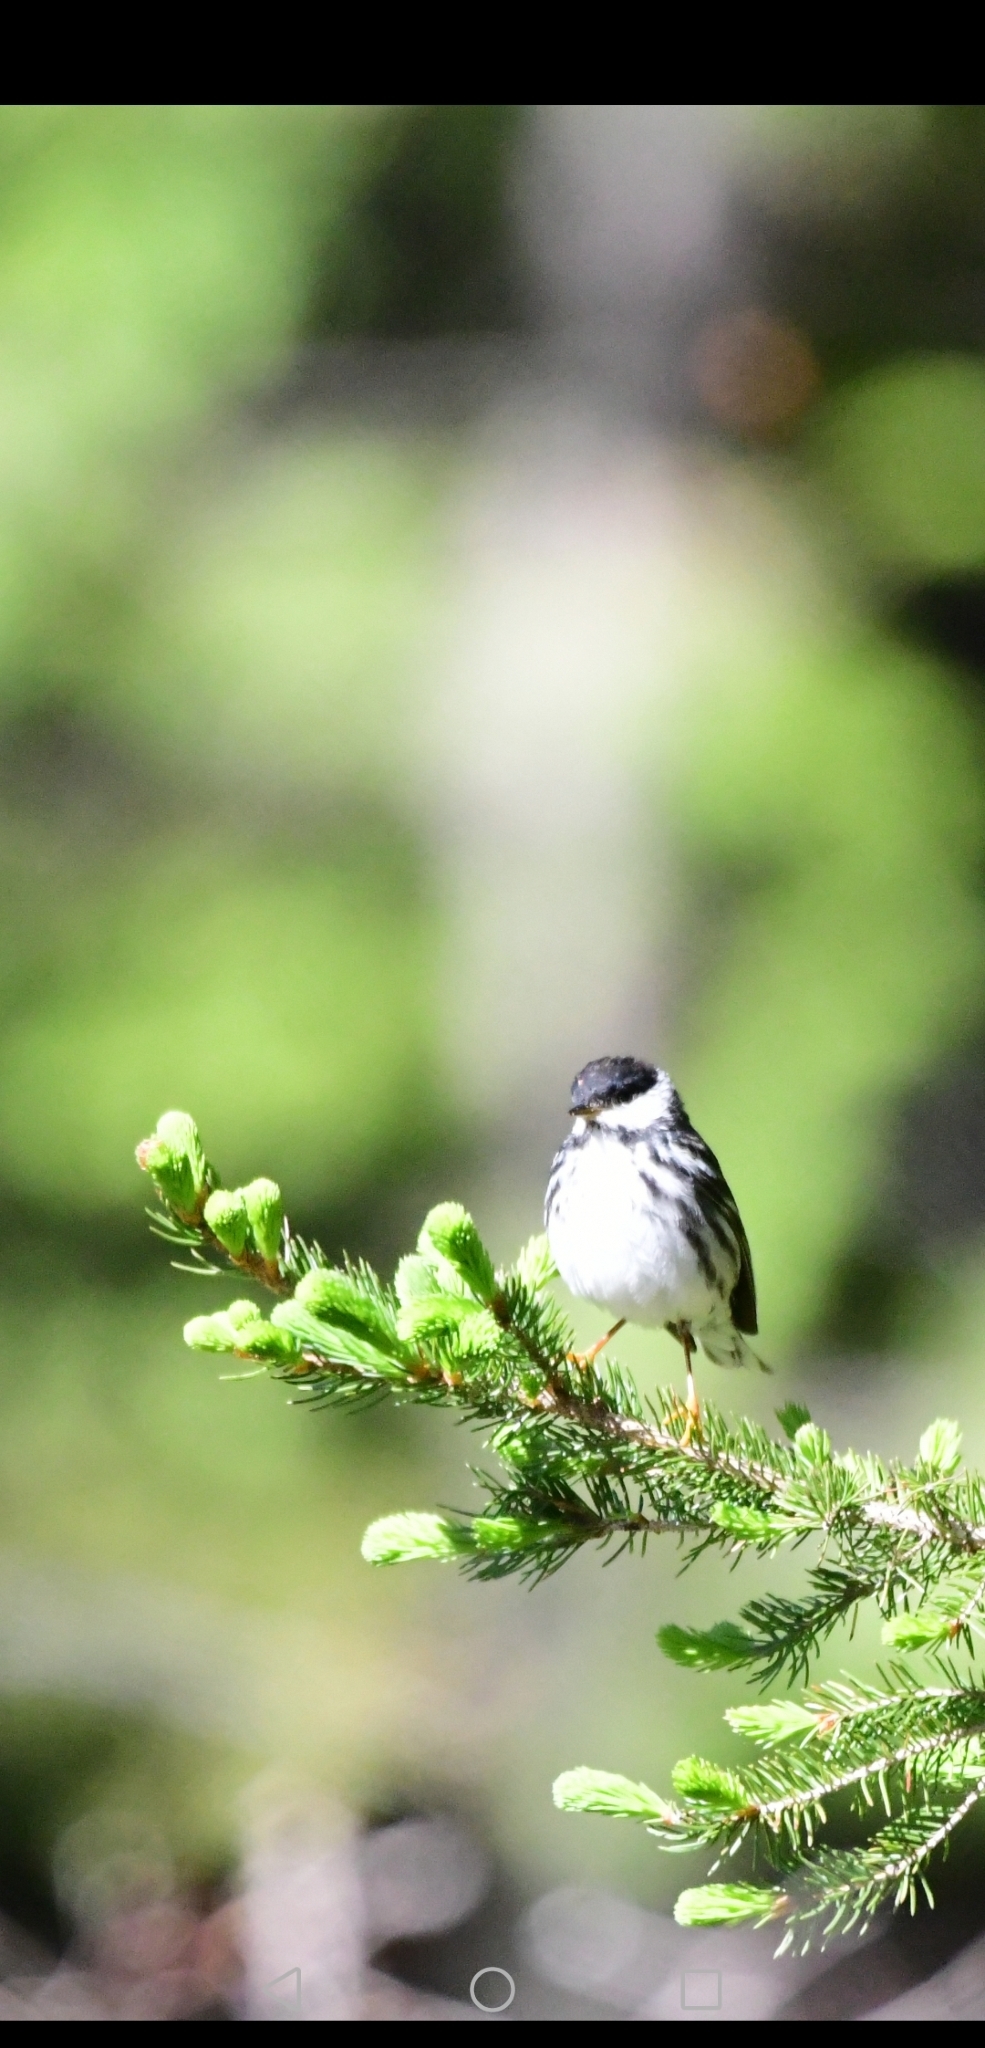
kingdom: Animalia
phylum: Chordata
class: Aves
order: Passeriformes
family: Parulidae
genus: Setophaga
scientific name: Setophaga striata
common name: Blackpoll warbler
